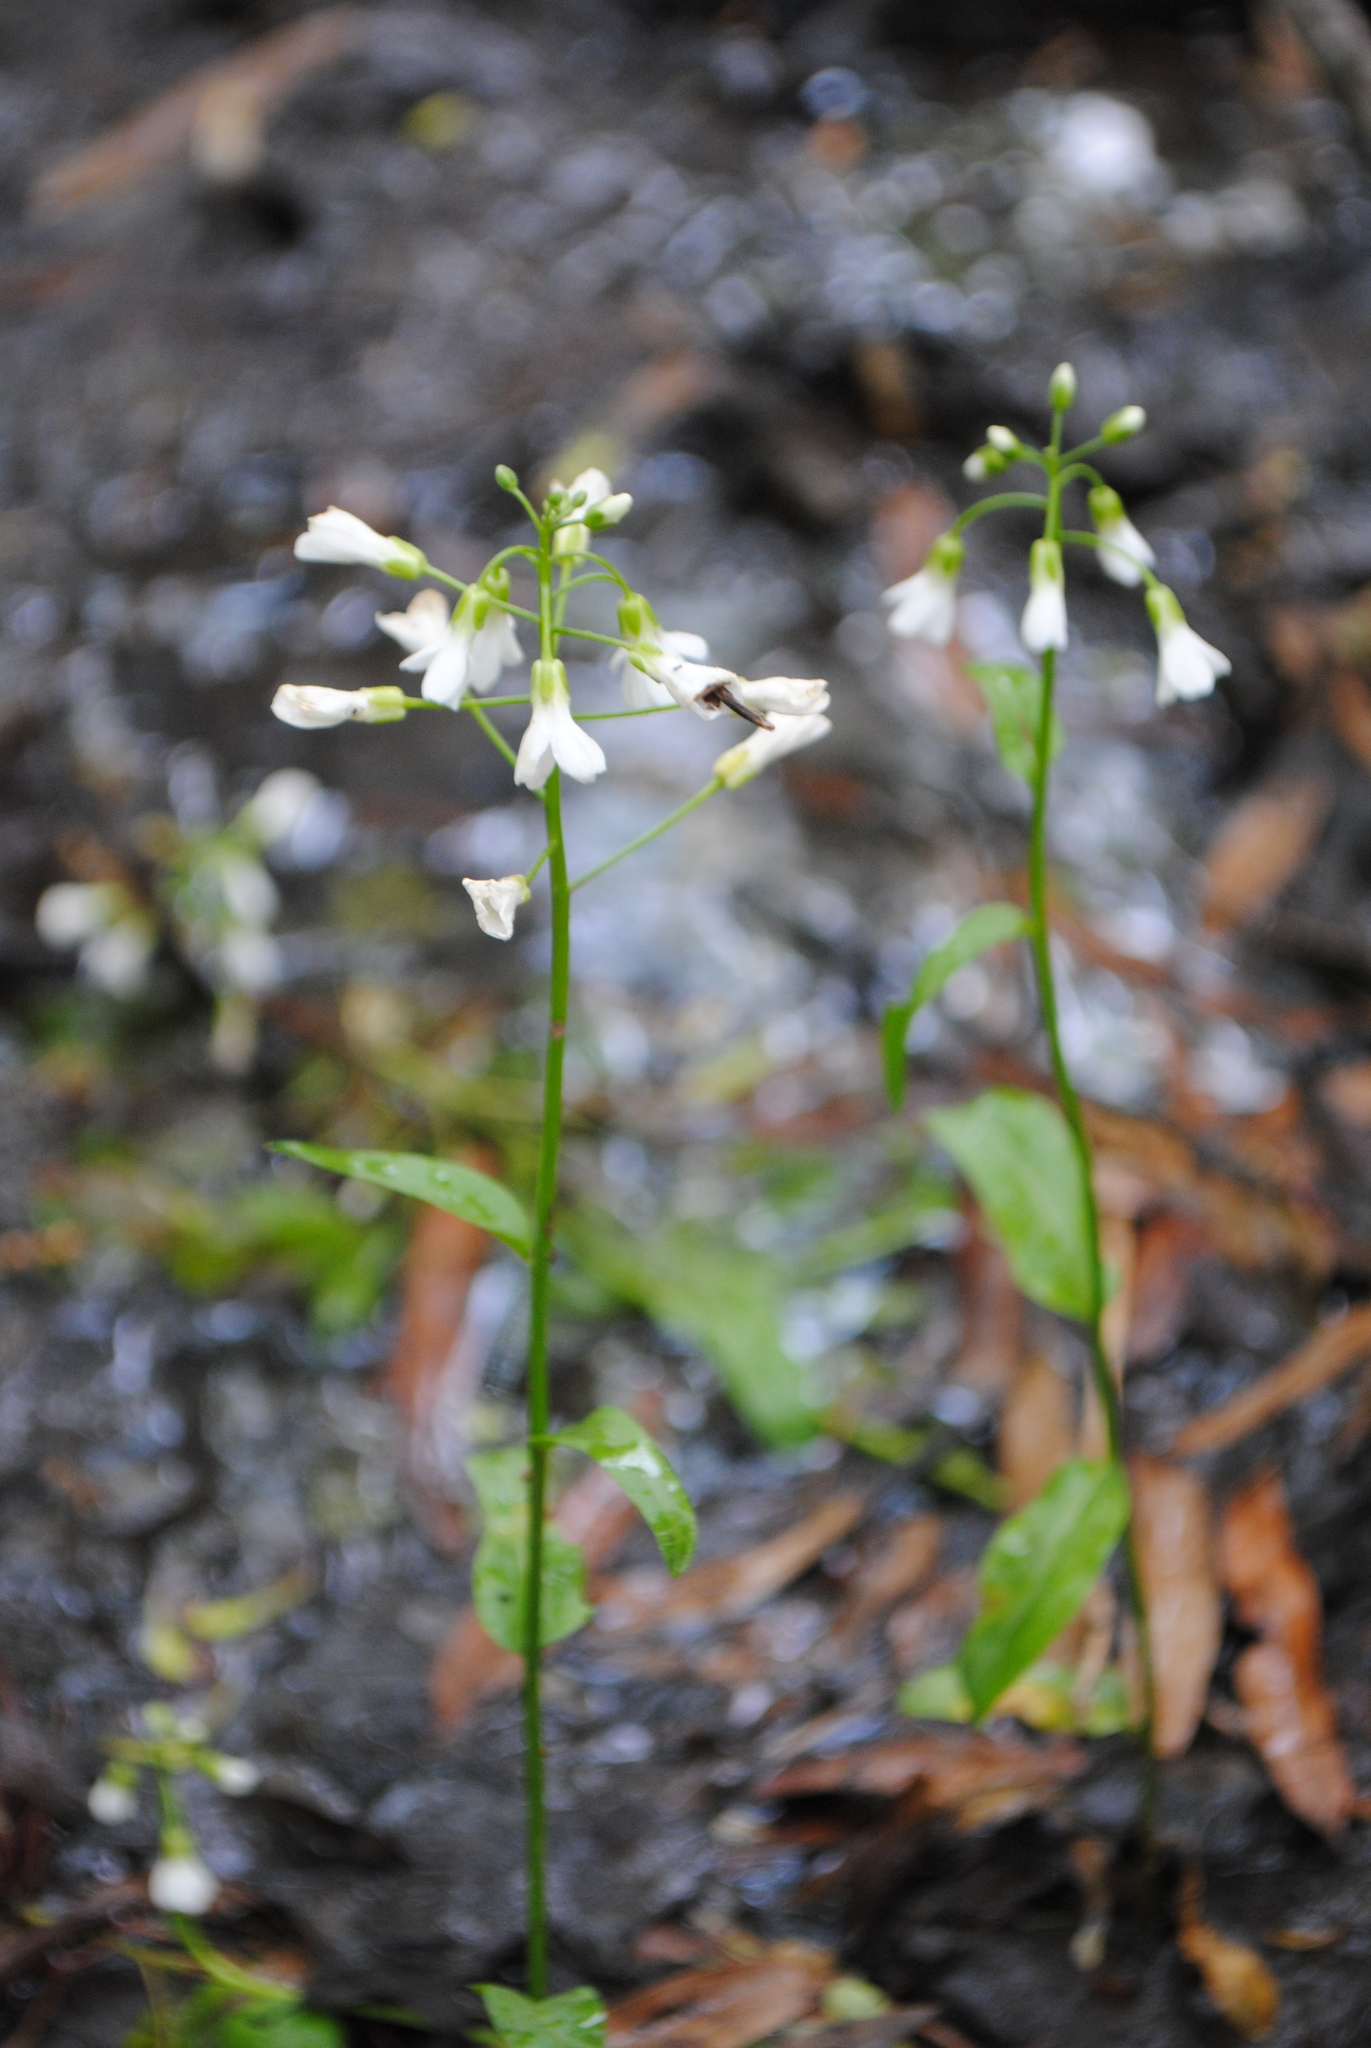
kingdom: Plantae
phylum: Tracheophyta
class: Magnoliopsida
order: Brassicales
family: Brassicaceae
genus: Cardamine
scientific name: Cardamine bulbosa
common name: Spring cress
